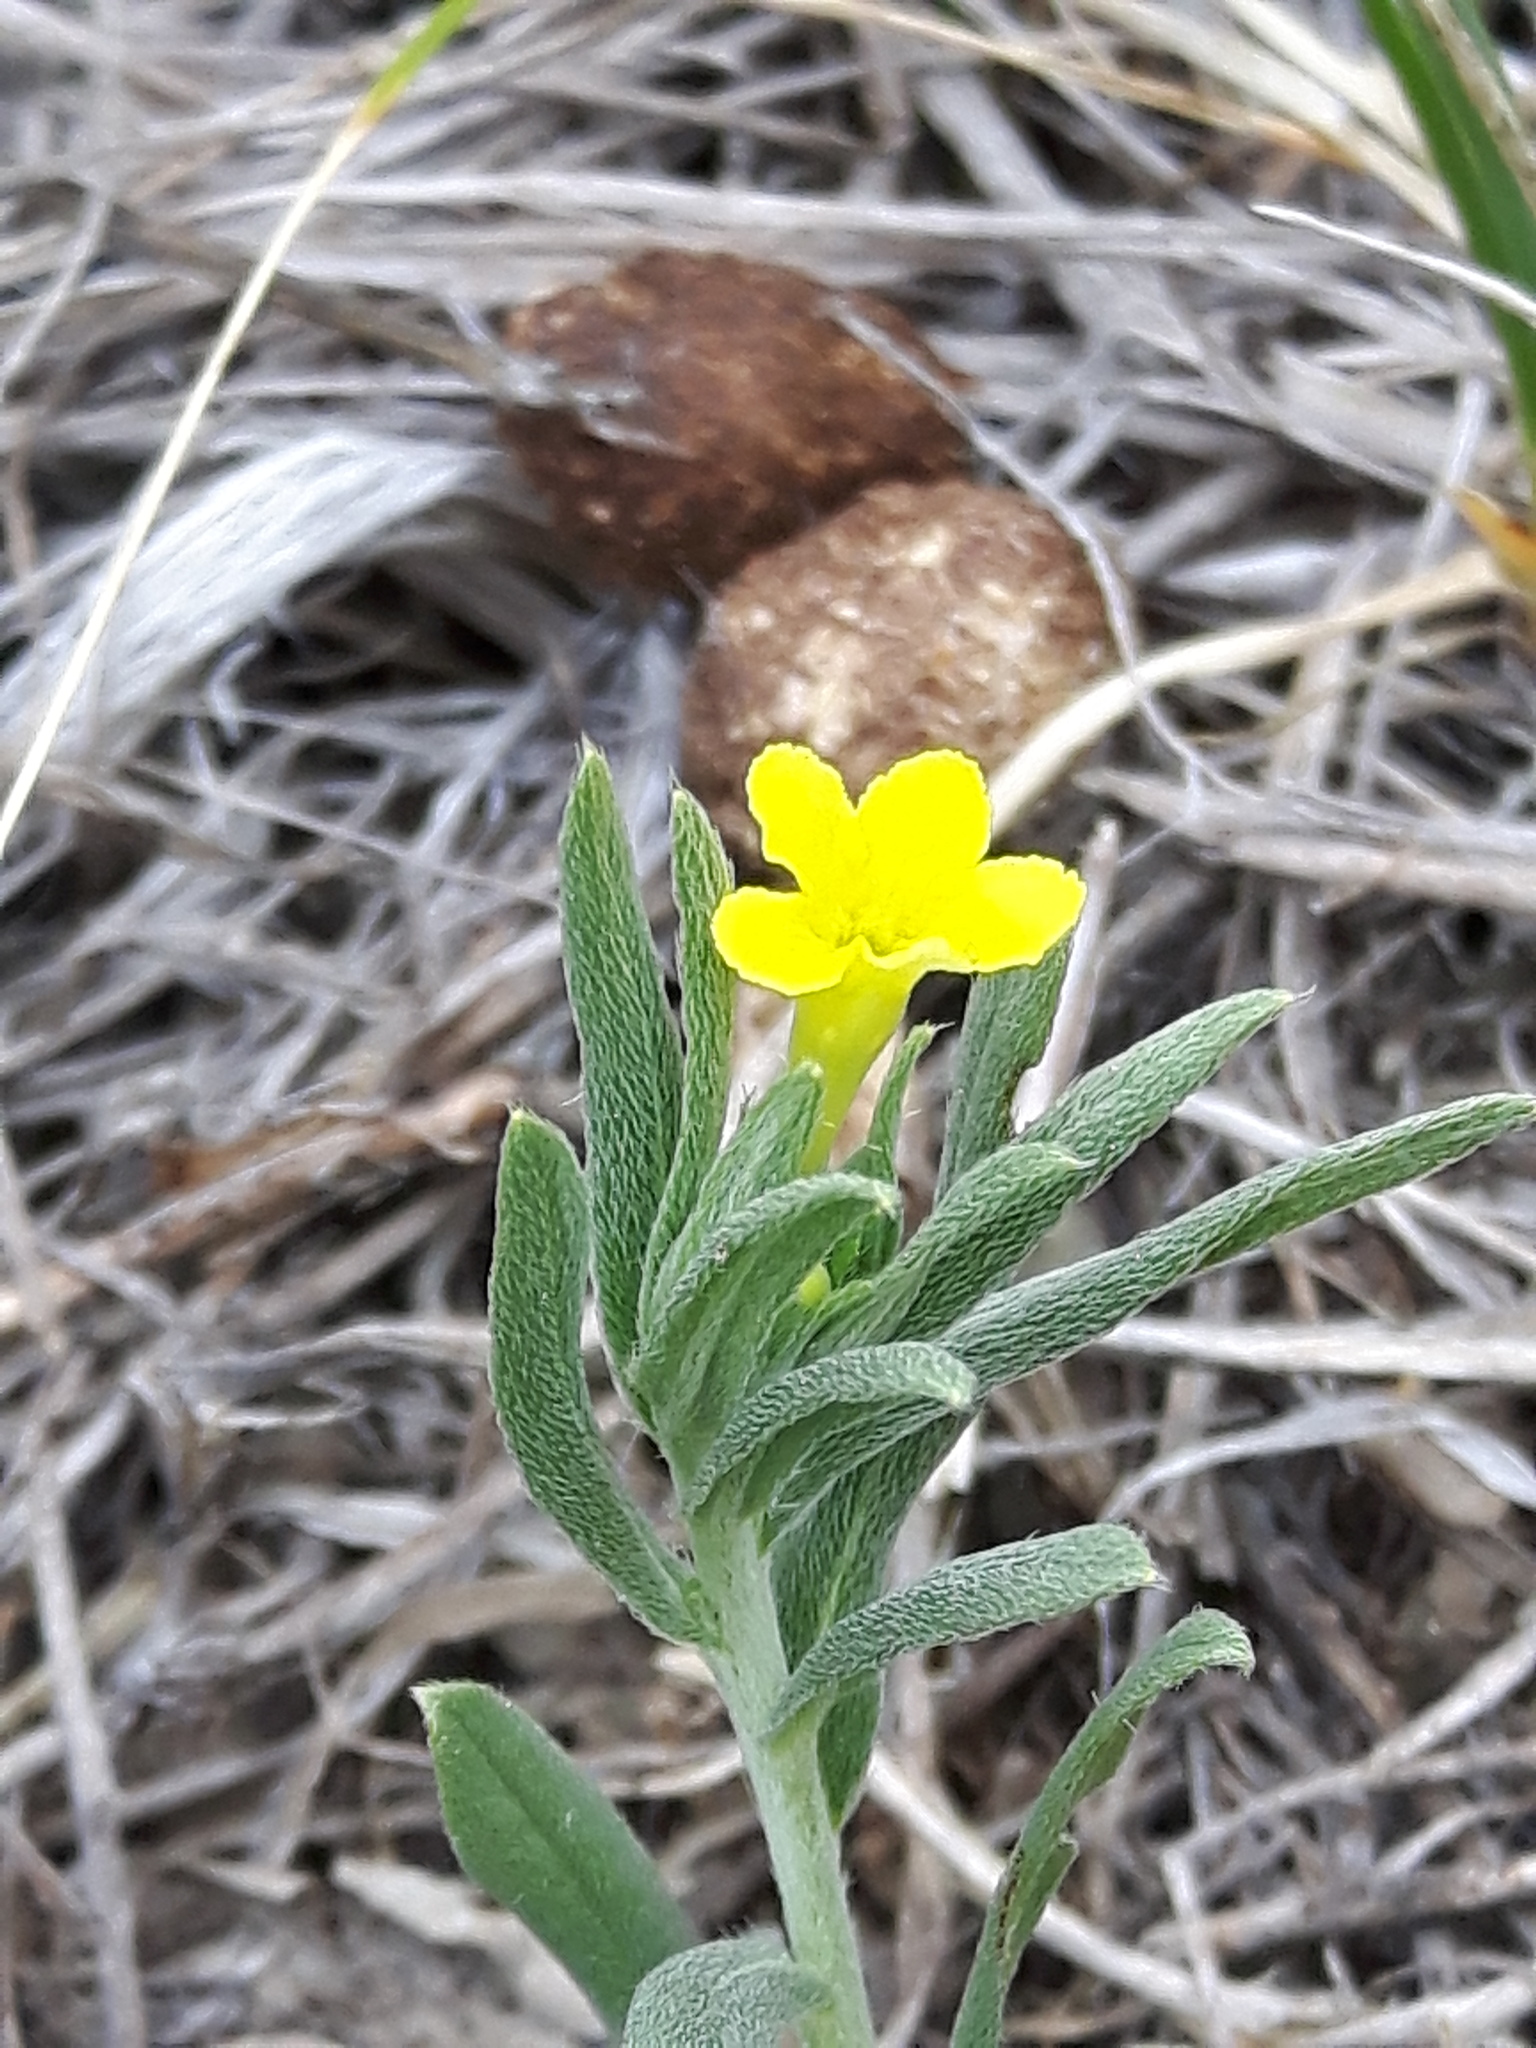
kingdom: Plantae
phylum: Tracheophyta
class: Magnoliopsida
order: Boraginales
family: Boraginaceae
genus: Lithospermum
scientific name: Lithospermum incisum
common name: Fringed gromwell
